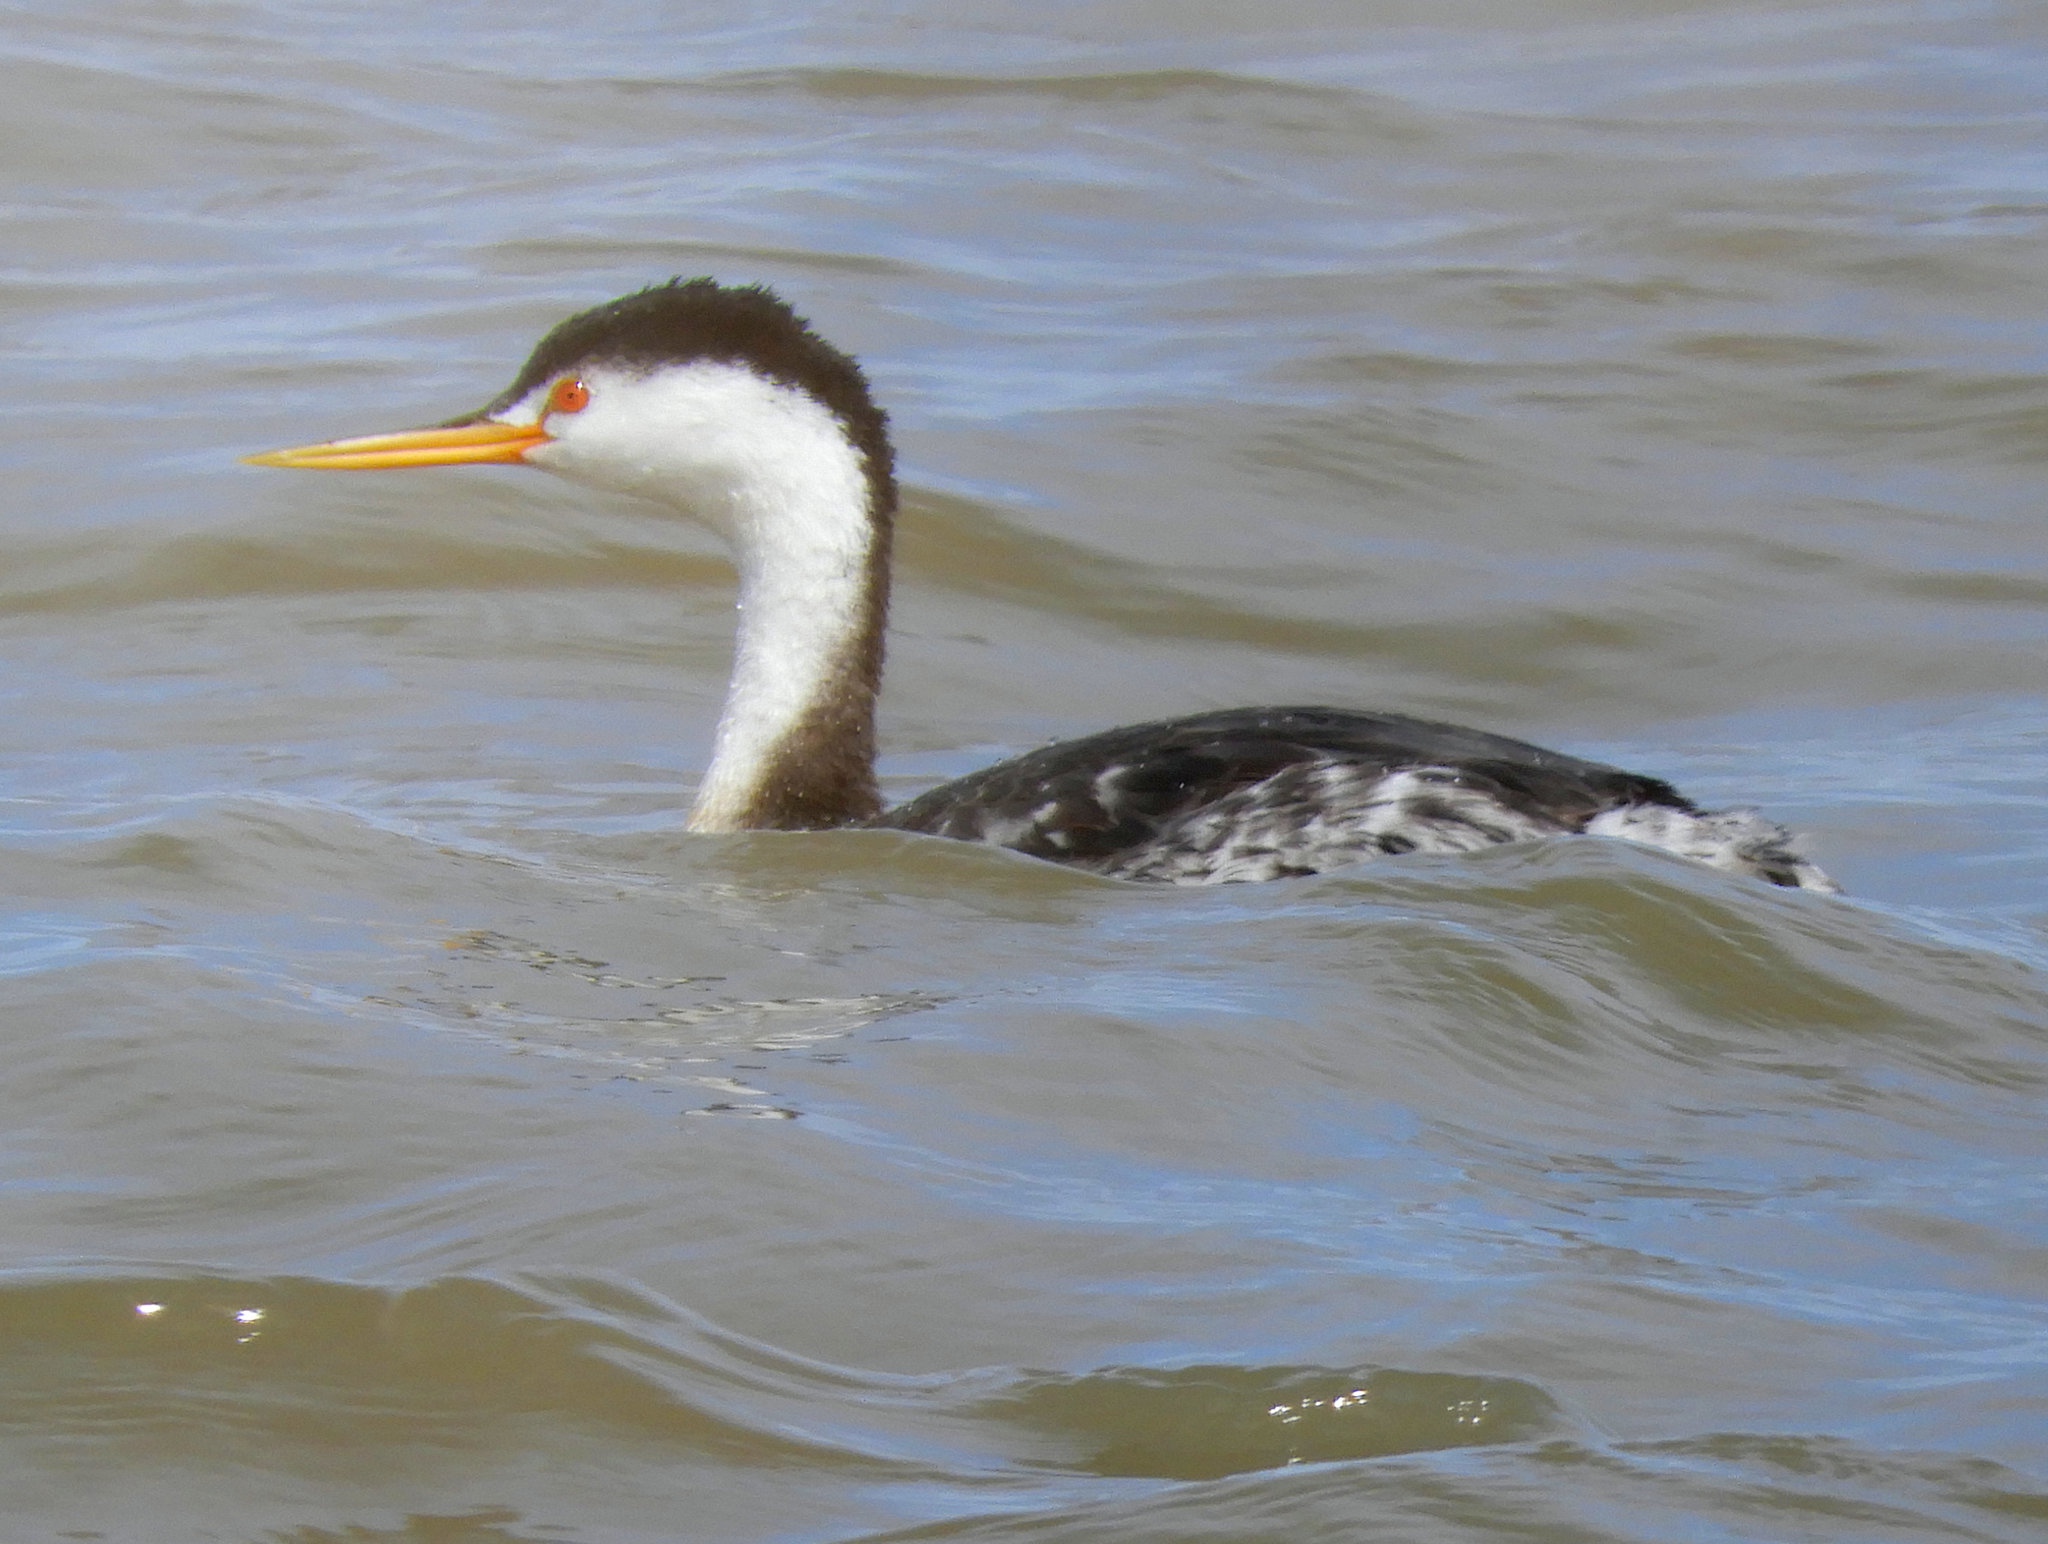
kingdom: Animalia
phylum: Chordata
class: Aves
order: Podicipediformes
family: Podicipedidae
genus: Aechmophorus
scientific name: Aechmophorus clarkii
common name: Clark's grebe
